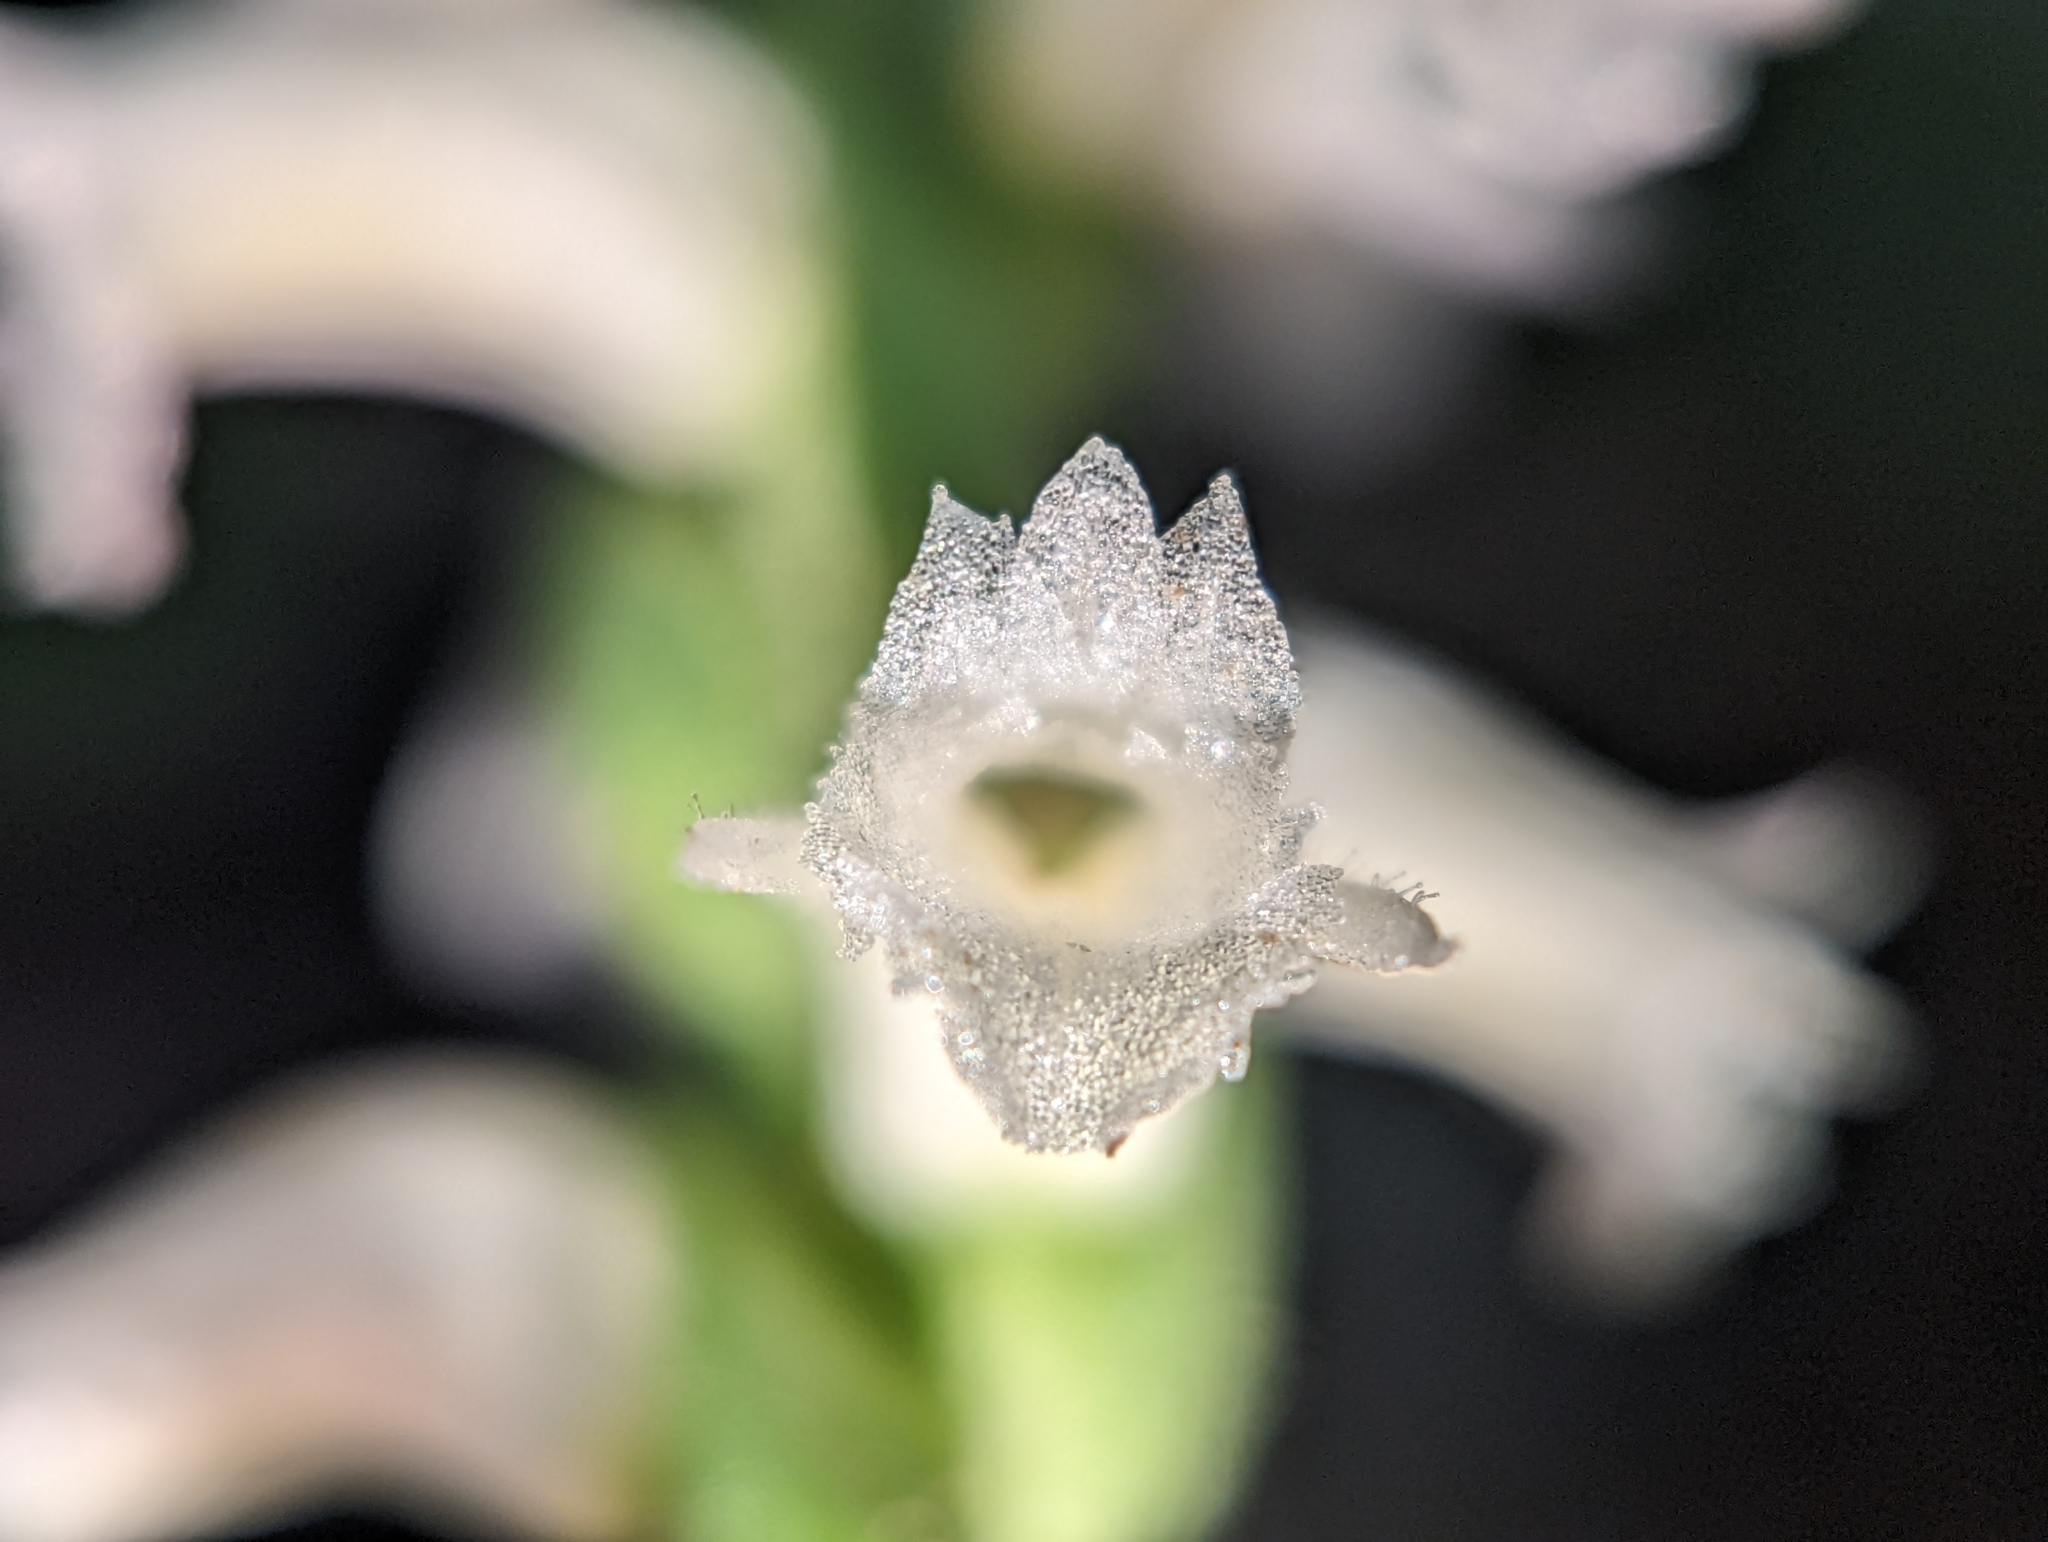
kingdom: Plantae
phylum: Tracheophyta
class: Liliopsida
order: Asparagales
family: Orchidaceae
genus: Spiranthes
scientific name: Spiranthes ochroleuca
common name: Yellow ladies'-tresses
